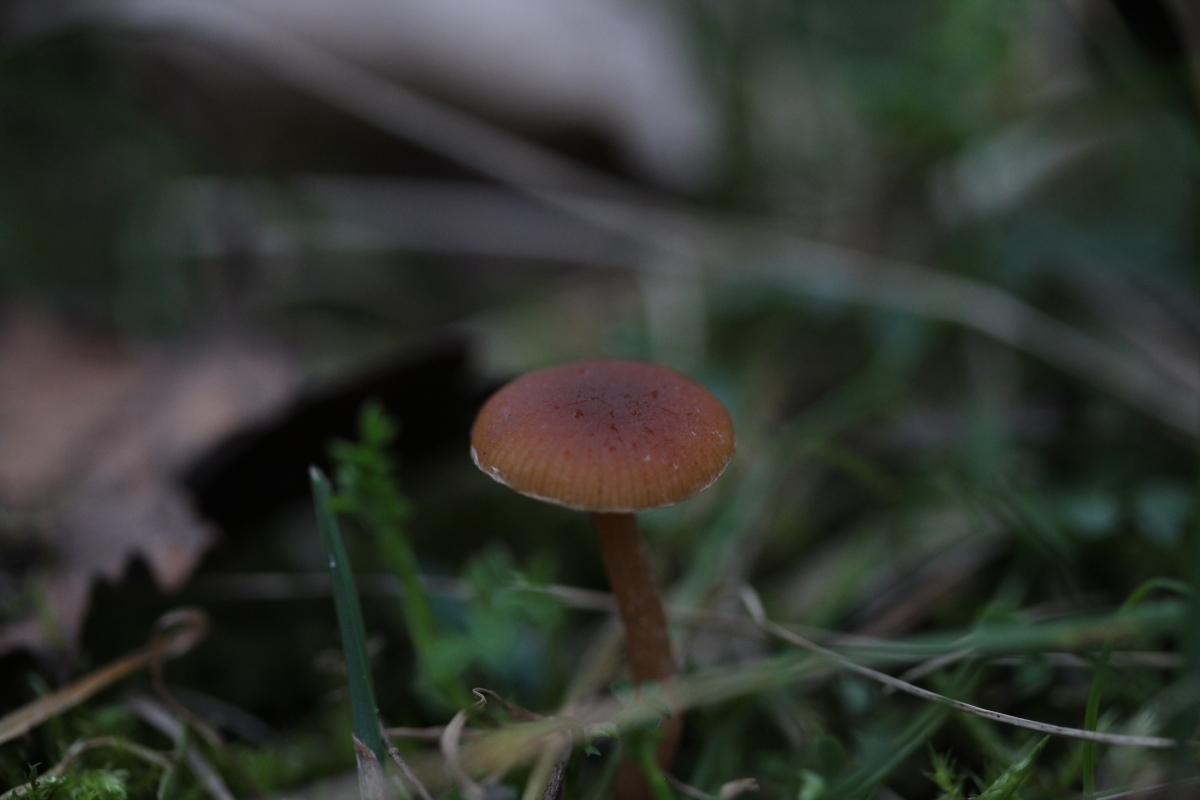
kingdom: Fungi
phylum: Basidiomycota
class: Agaricomycetes
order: Agaricales
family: Tubariaceae
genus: Tubaria
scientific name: Tubaria
